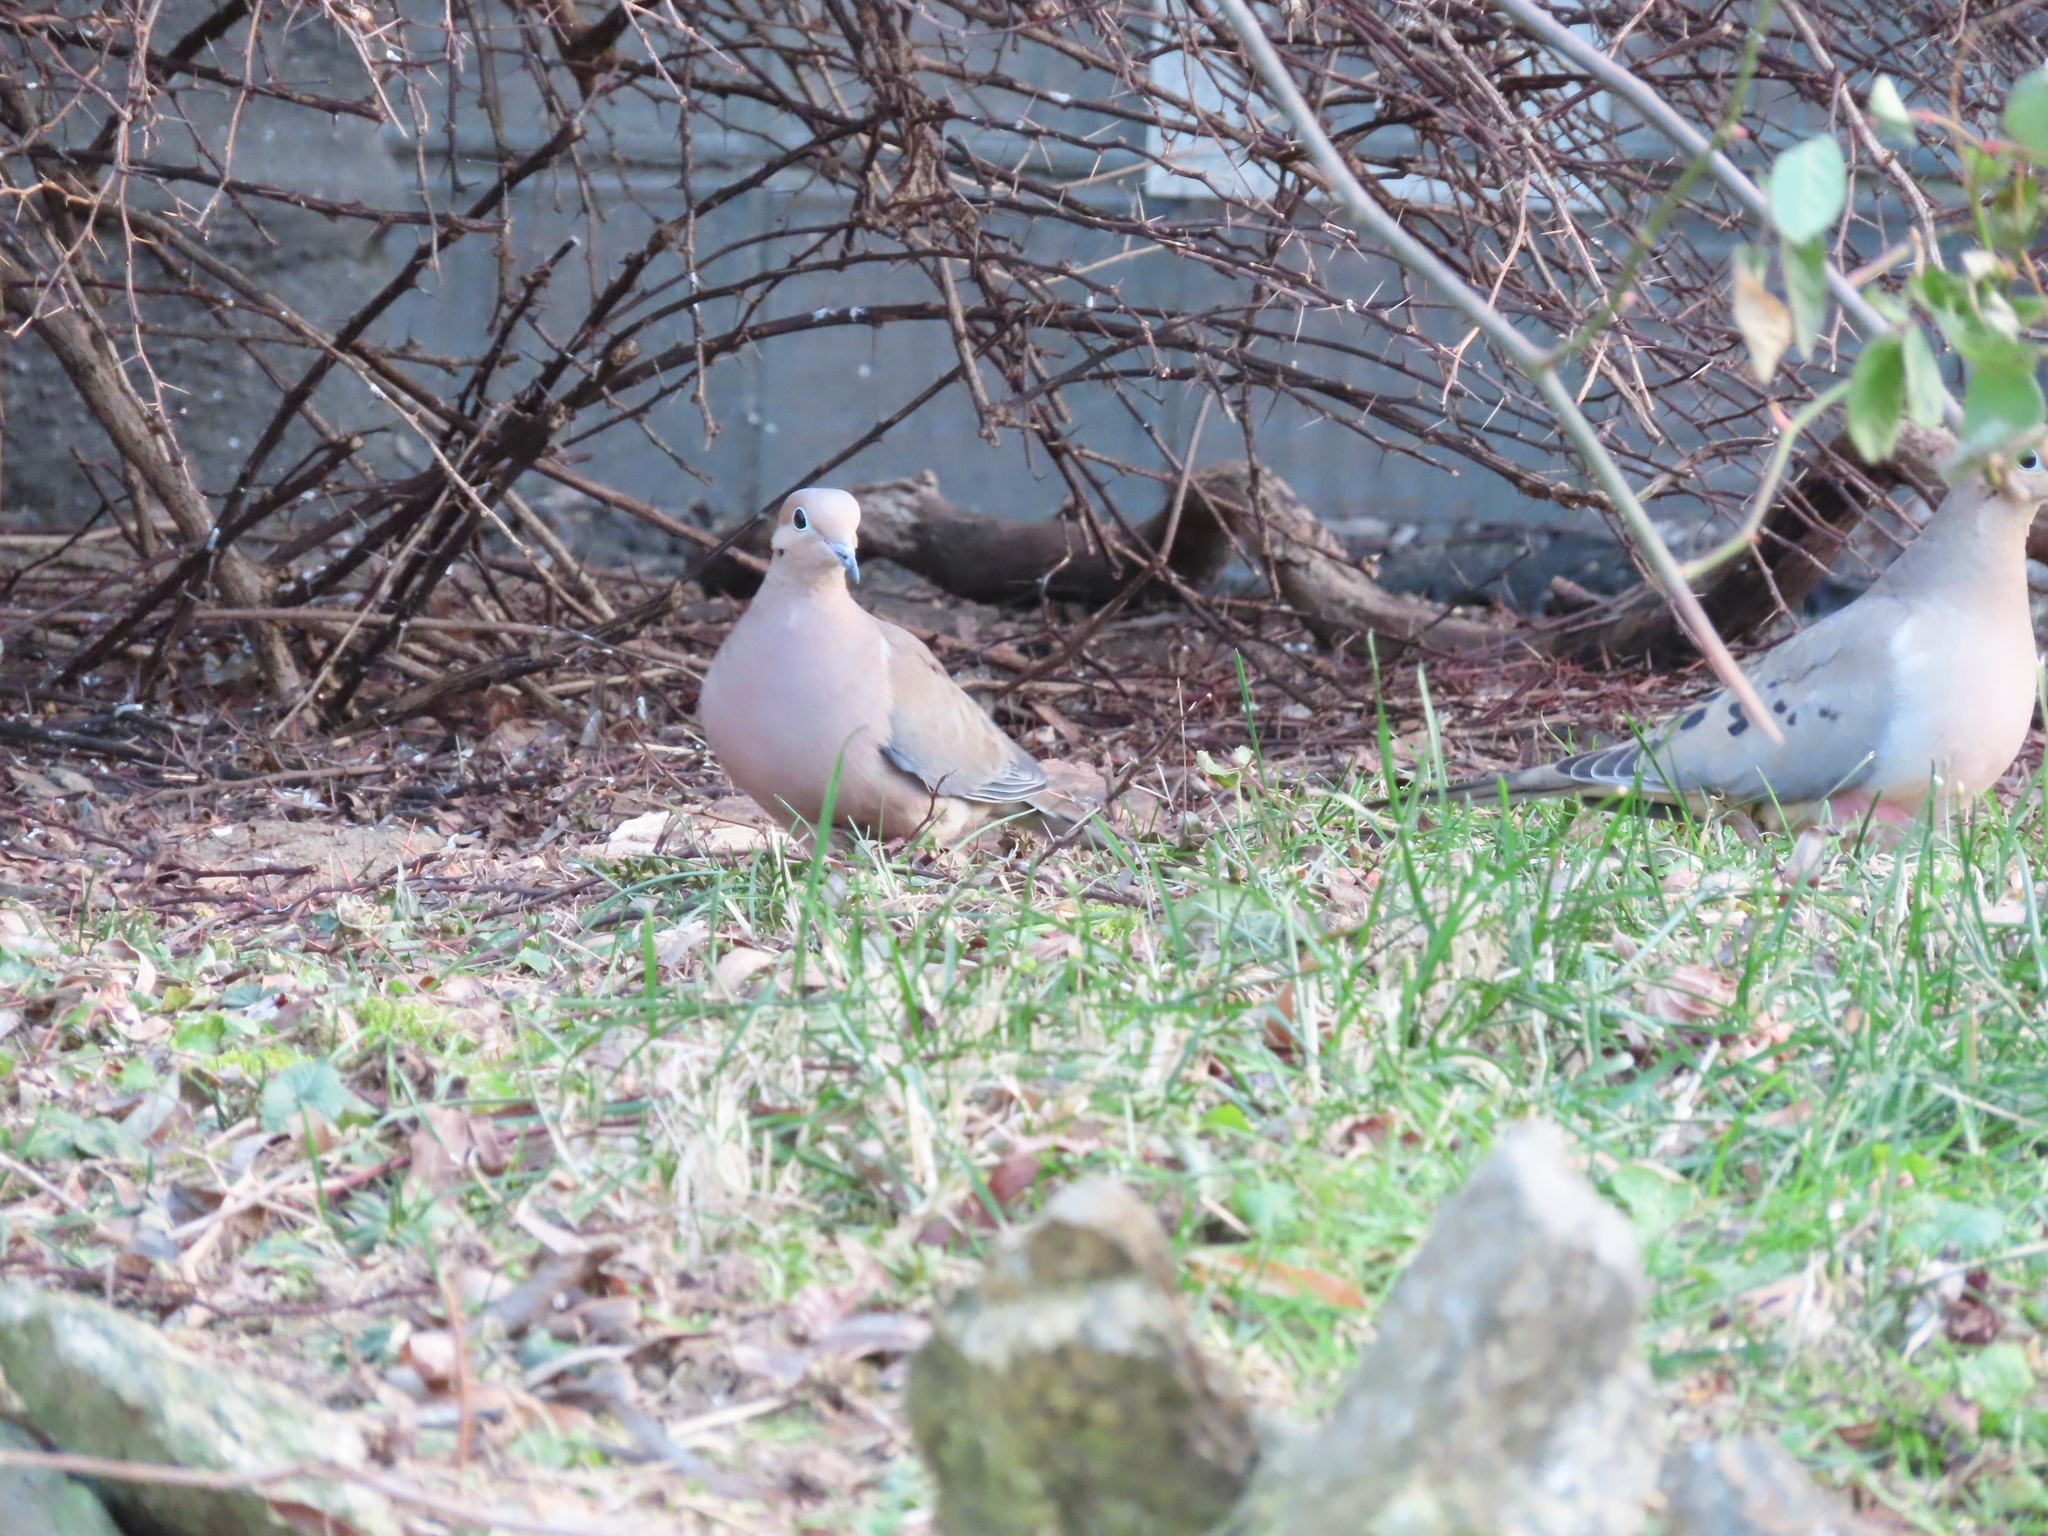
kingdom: Animalia
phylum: Chordata
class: Aves
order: Columbiformes
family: Columbidae
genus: Zenaida
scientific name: Zenaida macroura
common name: Mourning dove
